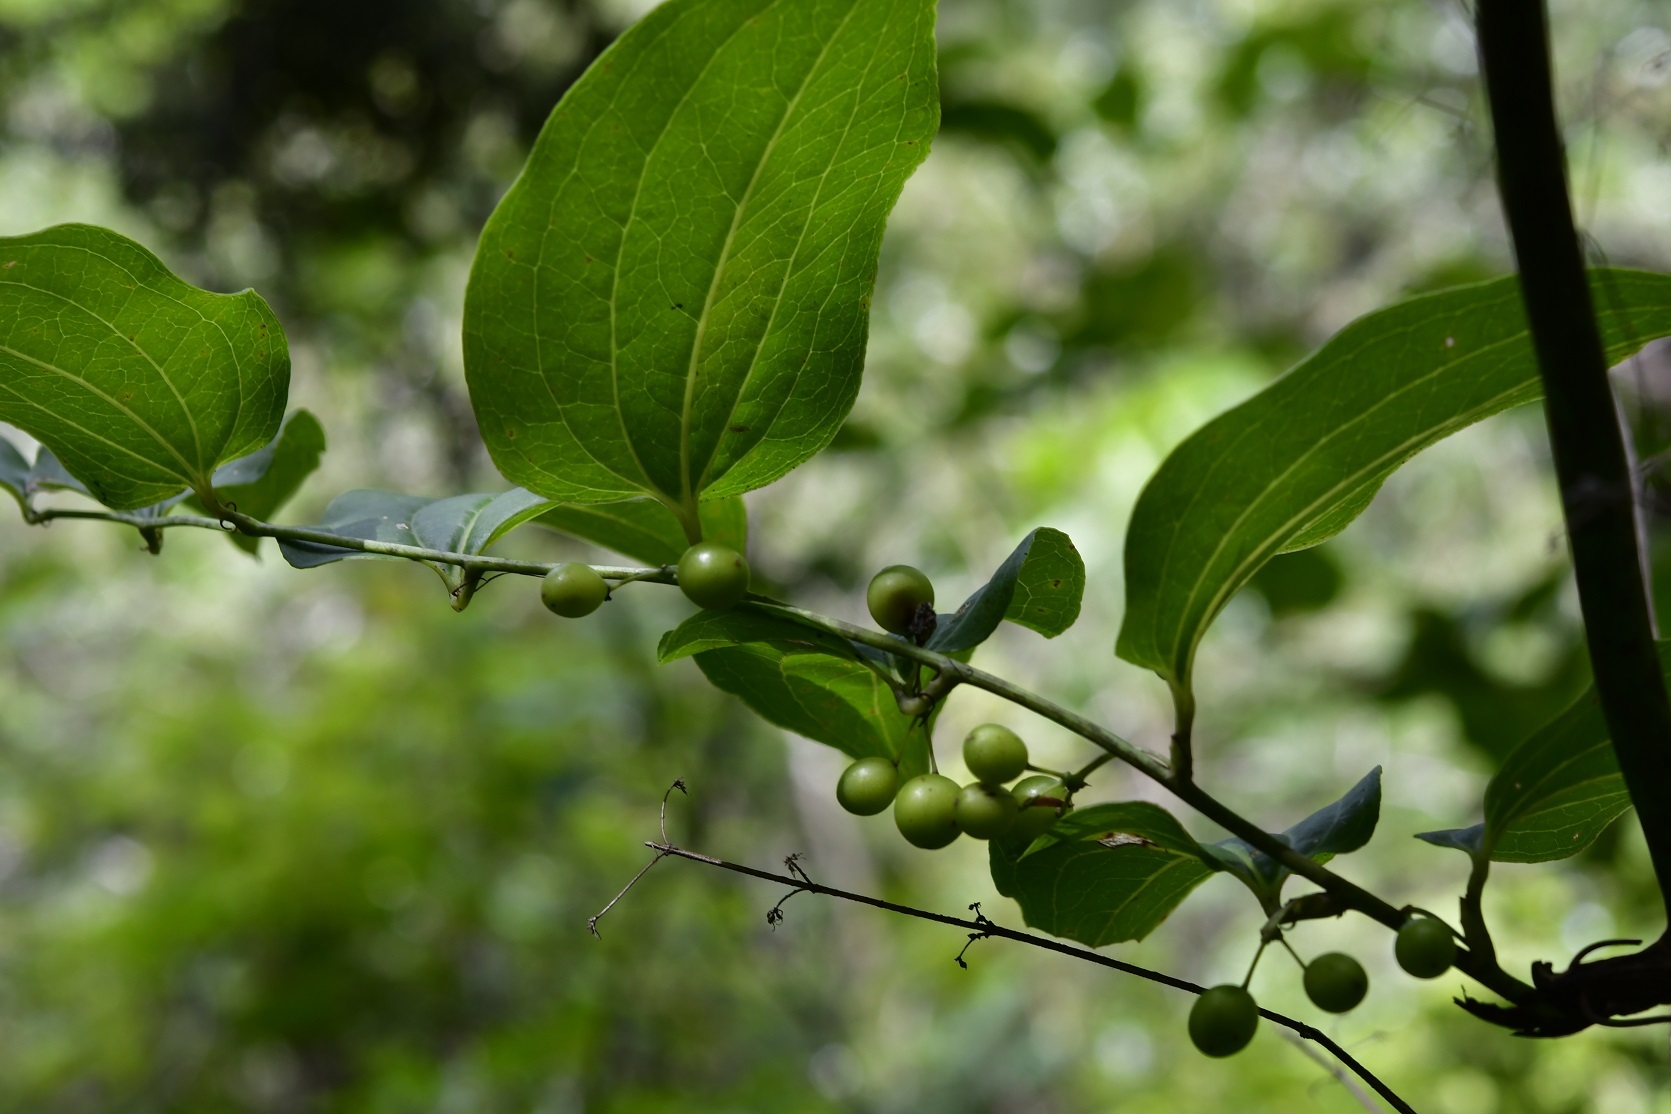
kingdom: Plantae
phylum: Tracheophyta
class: Liliopsida
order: Liliales
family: Smilacaceae
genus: Smilax
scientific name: Smilax domingensis
